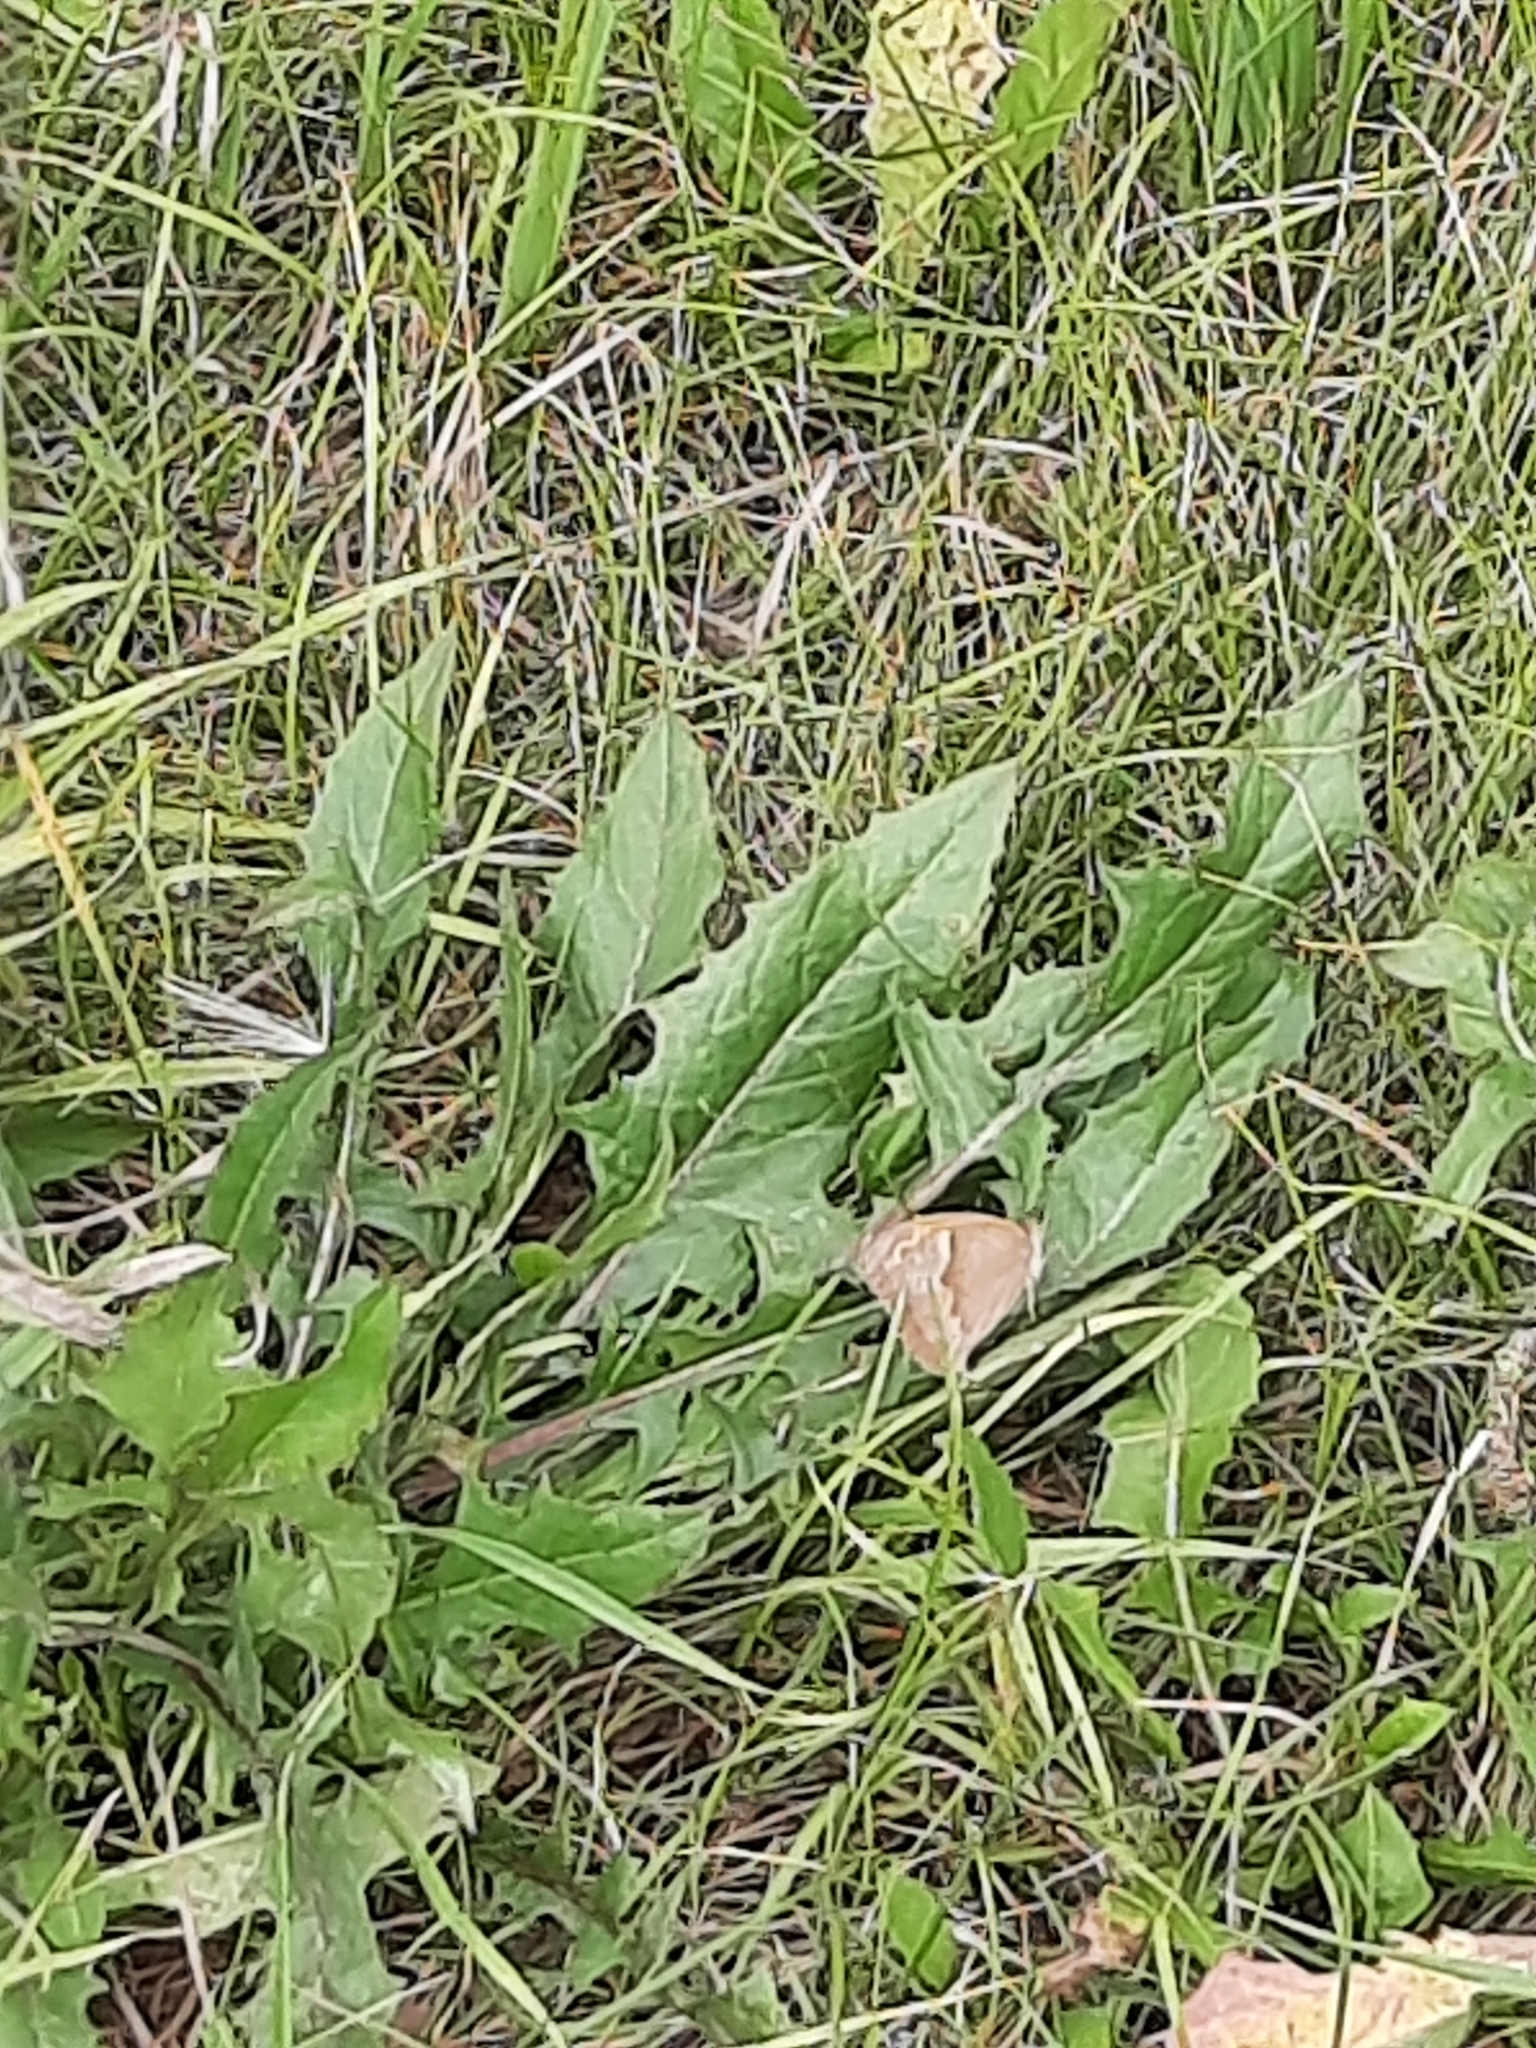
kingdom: Animalia
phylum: Arthropoda
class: Insecta
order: Lepidoptera
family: Nymphalidae
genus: Maniola
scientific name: Maniola jurtina
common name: Meadow brown
